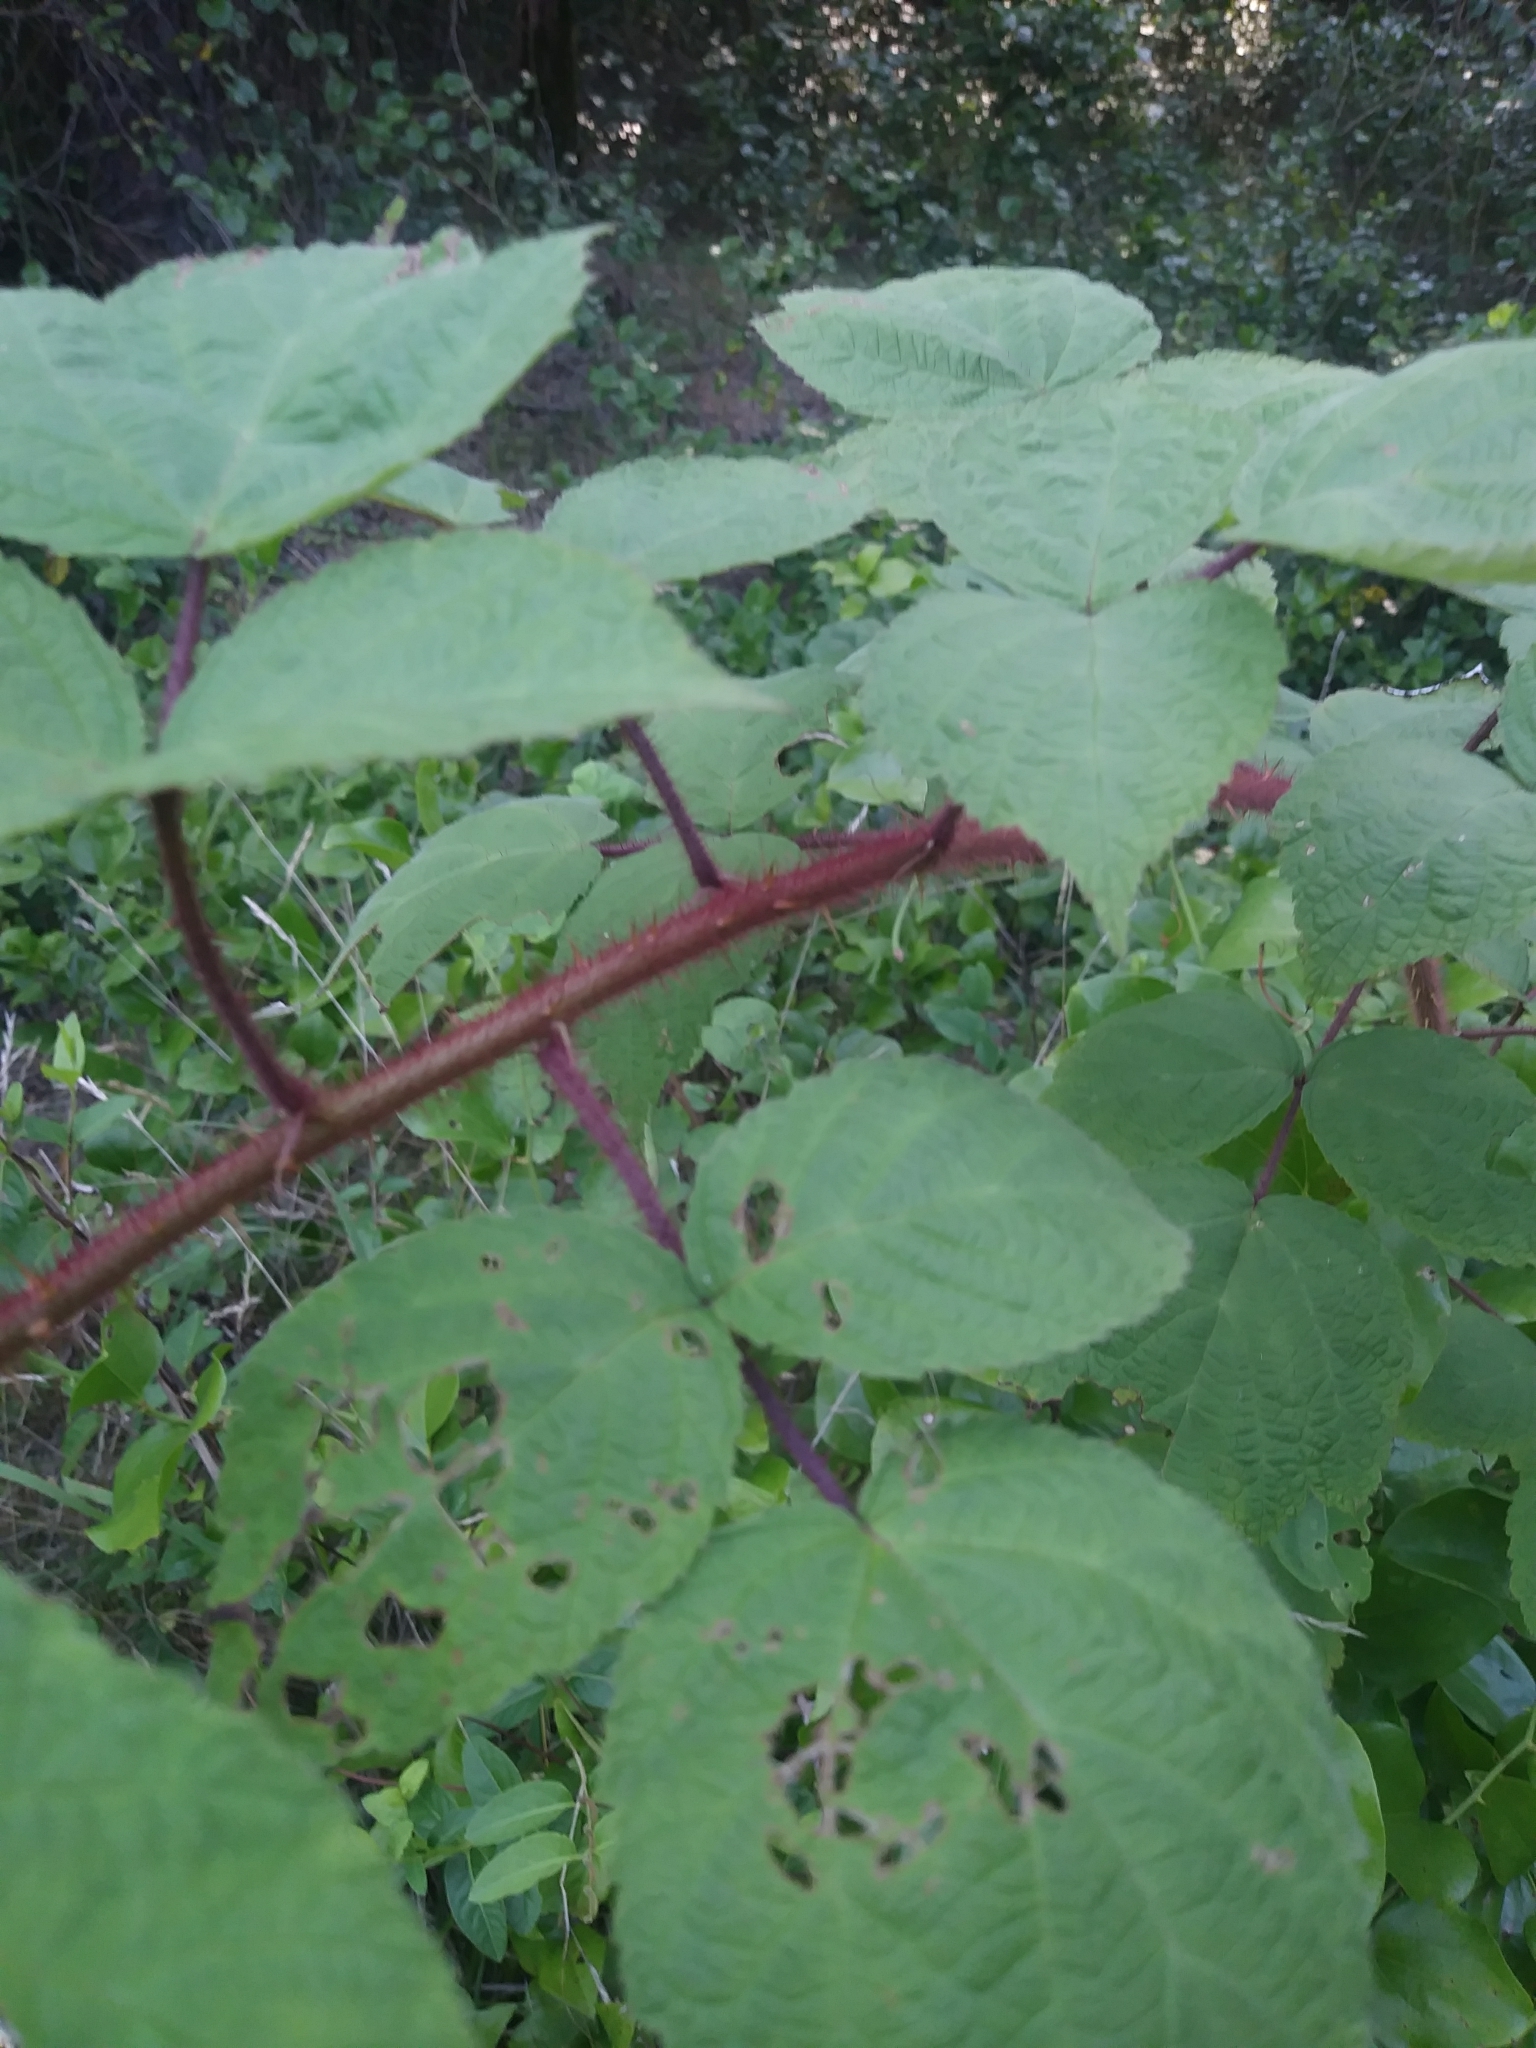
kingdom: Plantae
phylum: Tracheophyta
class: Magnoliopsida
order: Rosales
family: Rosaceae
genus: Rubus
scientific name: Rubus phoenicolasius
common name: Japanese wineberry
